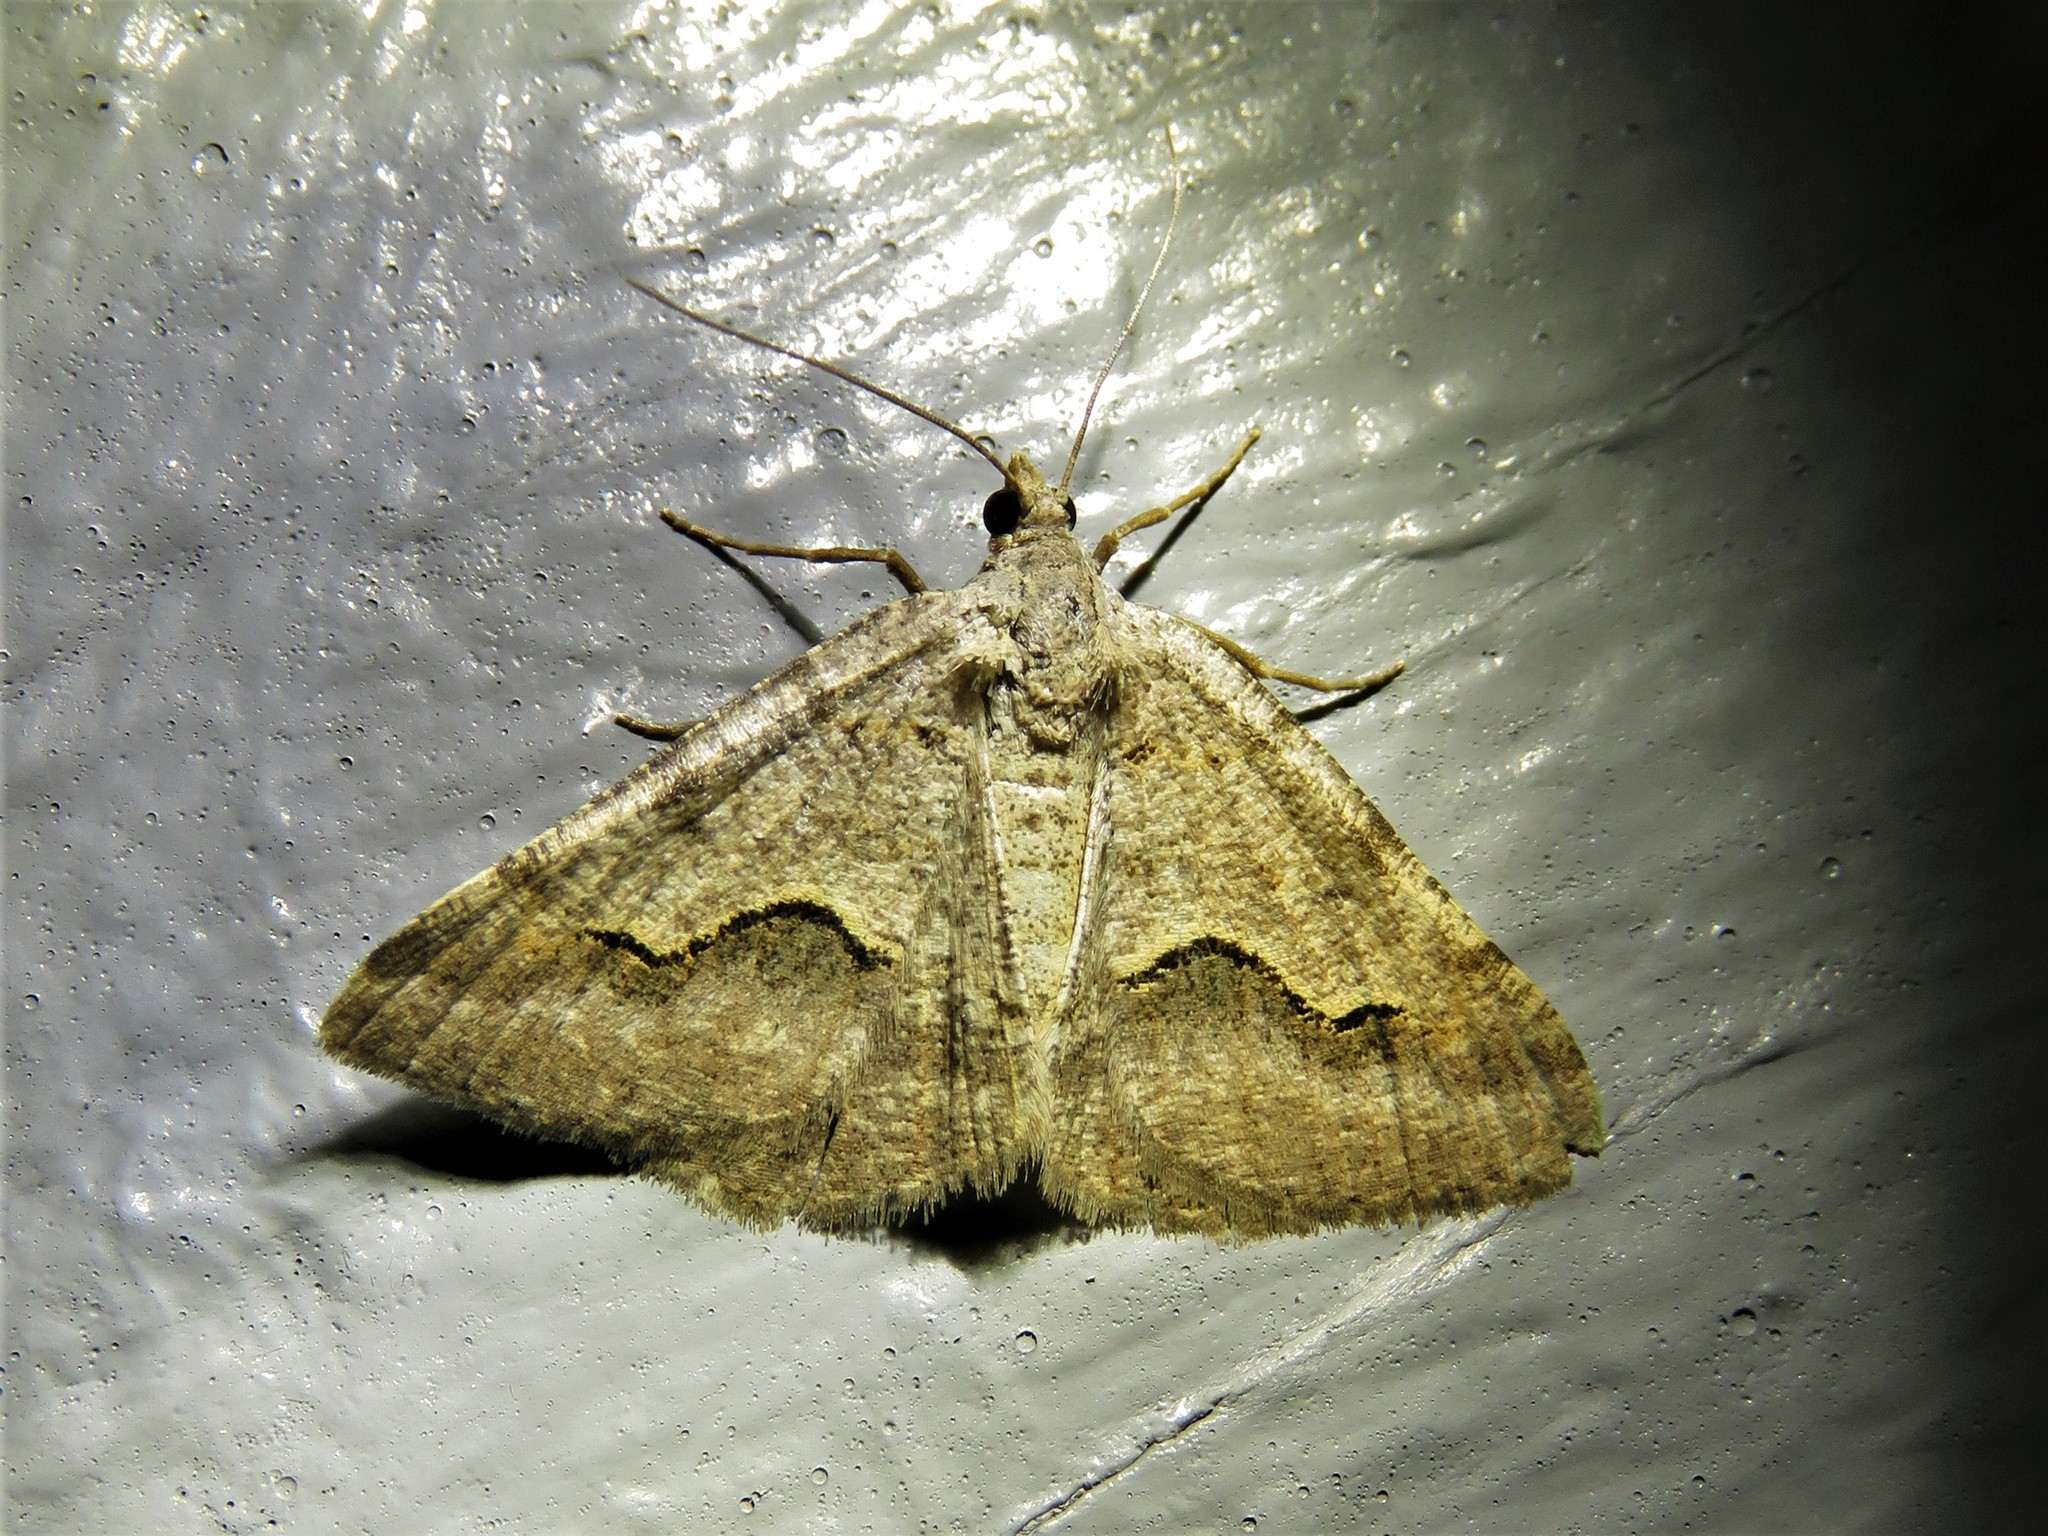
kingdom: Animalia
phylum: Arthropoda
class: Insecta
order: Lepidoptera
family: Geometridae
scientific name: Geometridae
